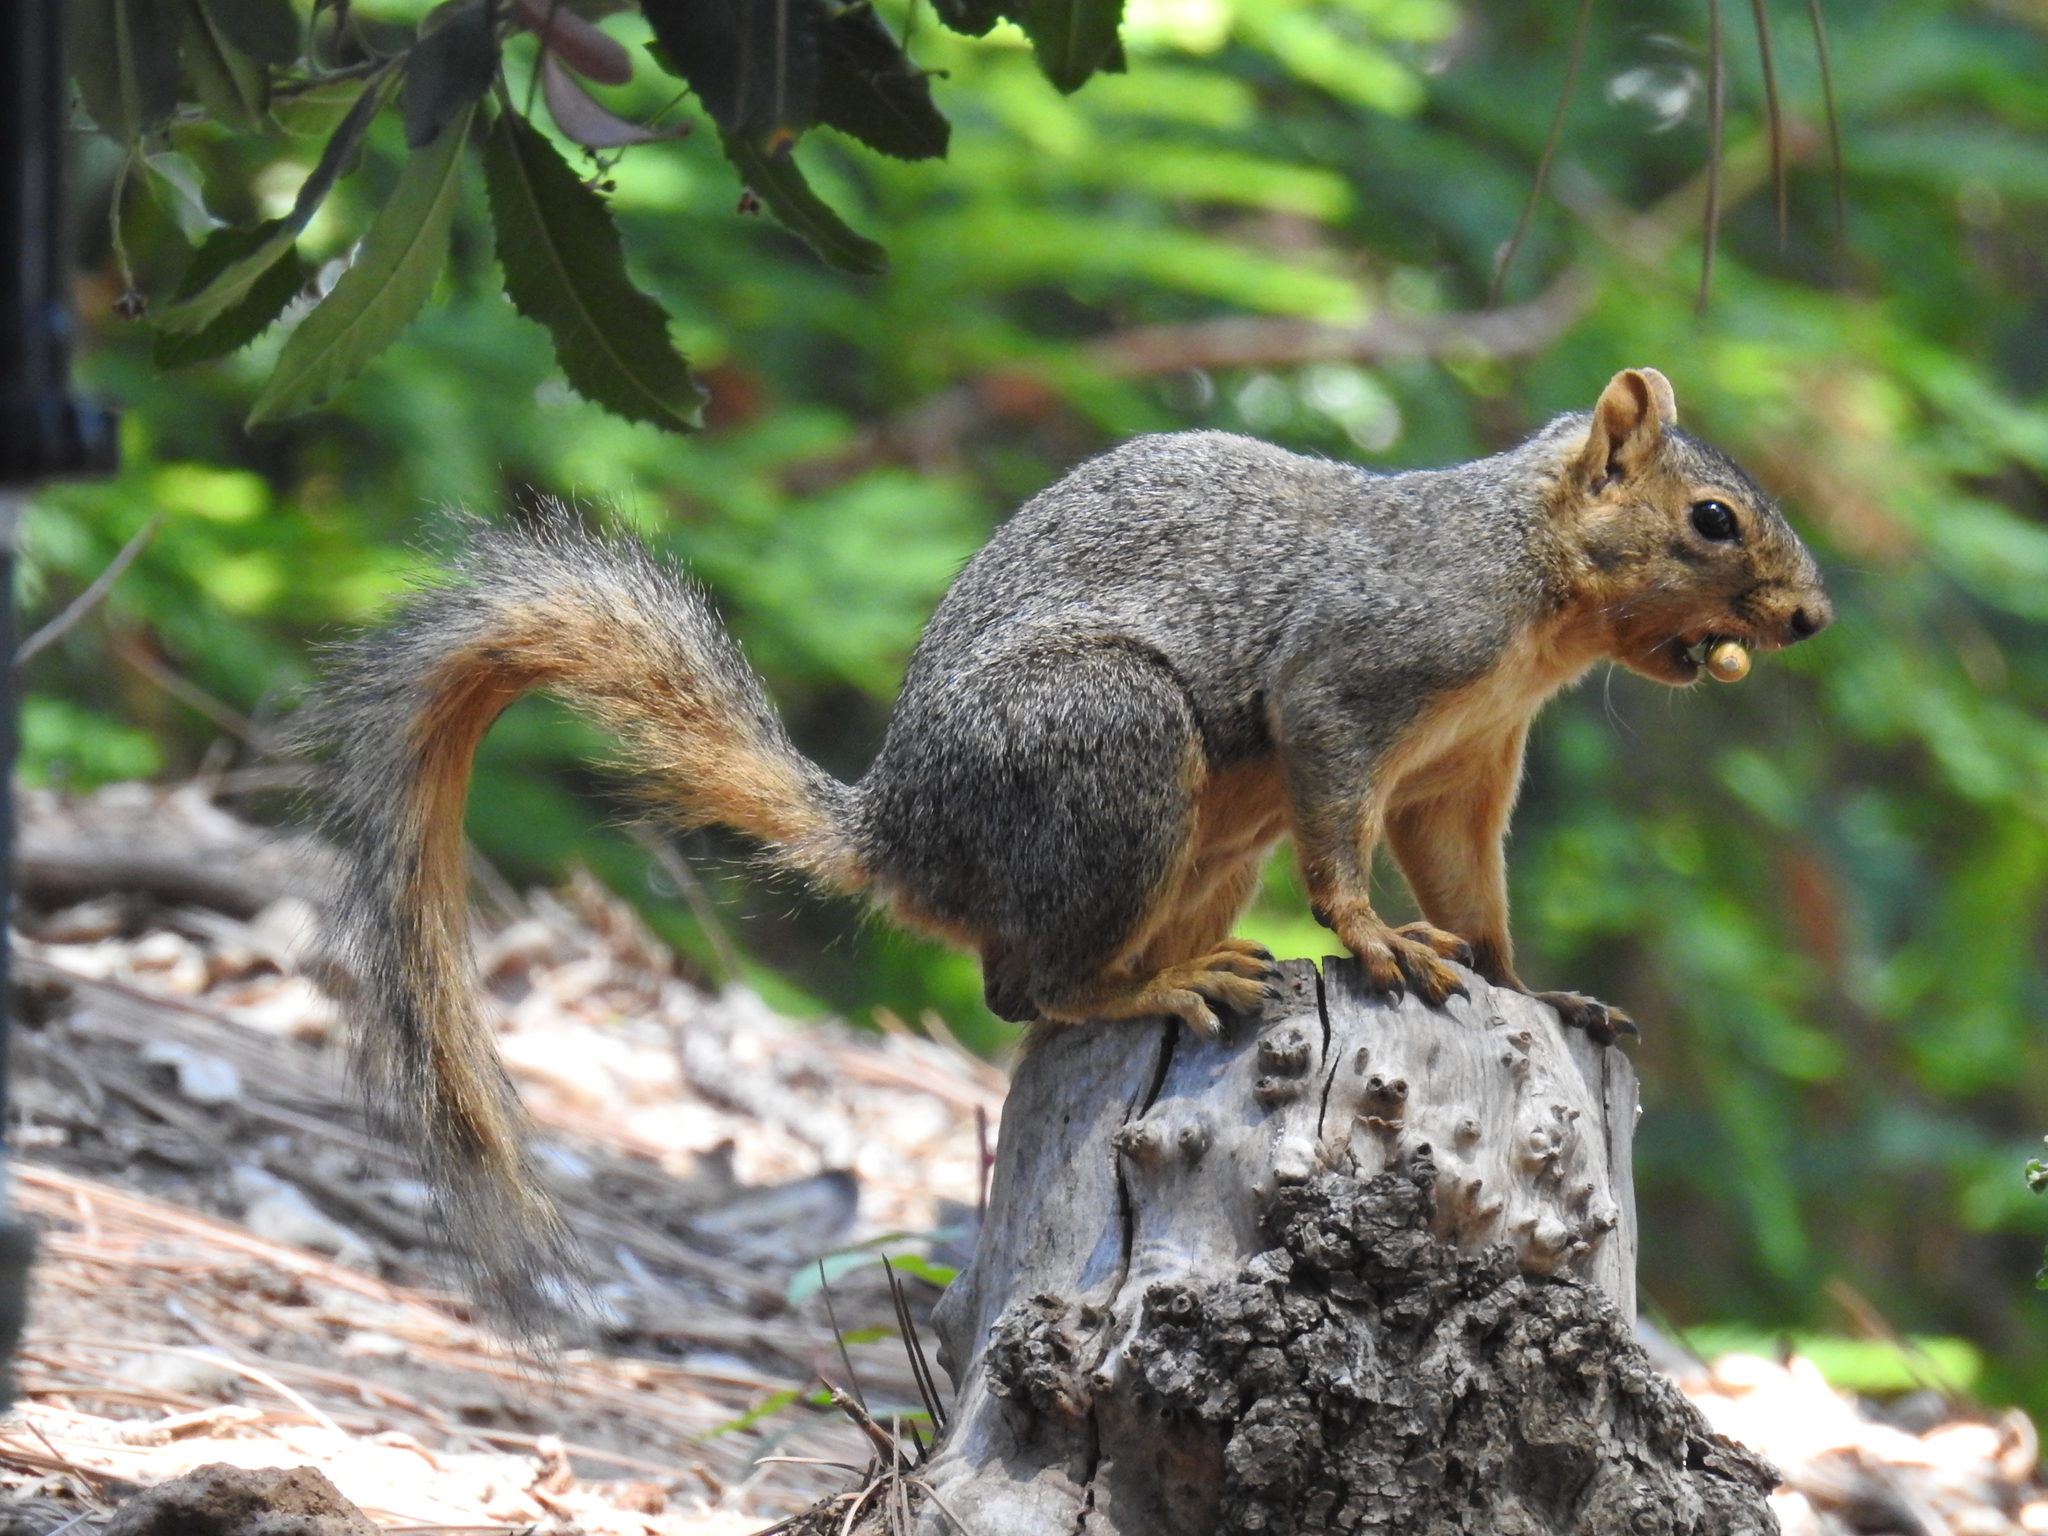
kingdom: Animalia
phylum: Chordata
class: Mammalia
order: Rodentia
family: Sciuridae
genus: Sciurus
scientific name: Sciurus niger
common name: Fox squirrel
